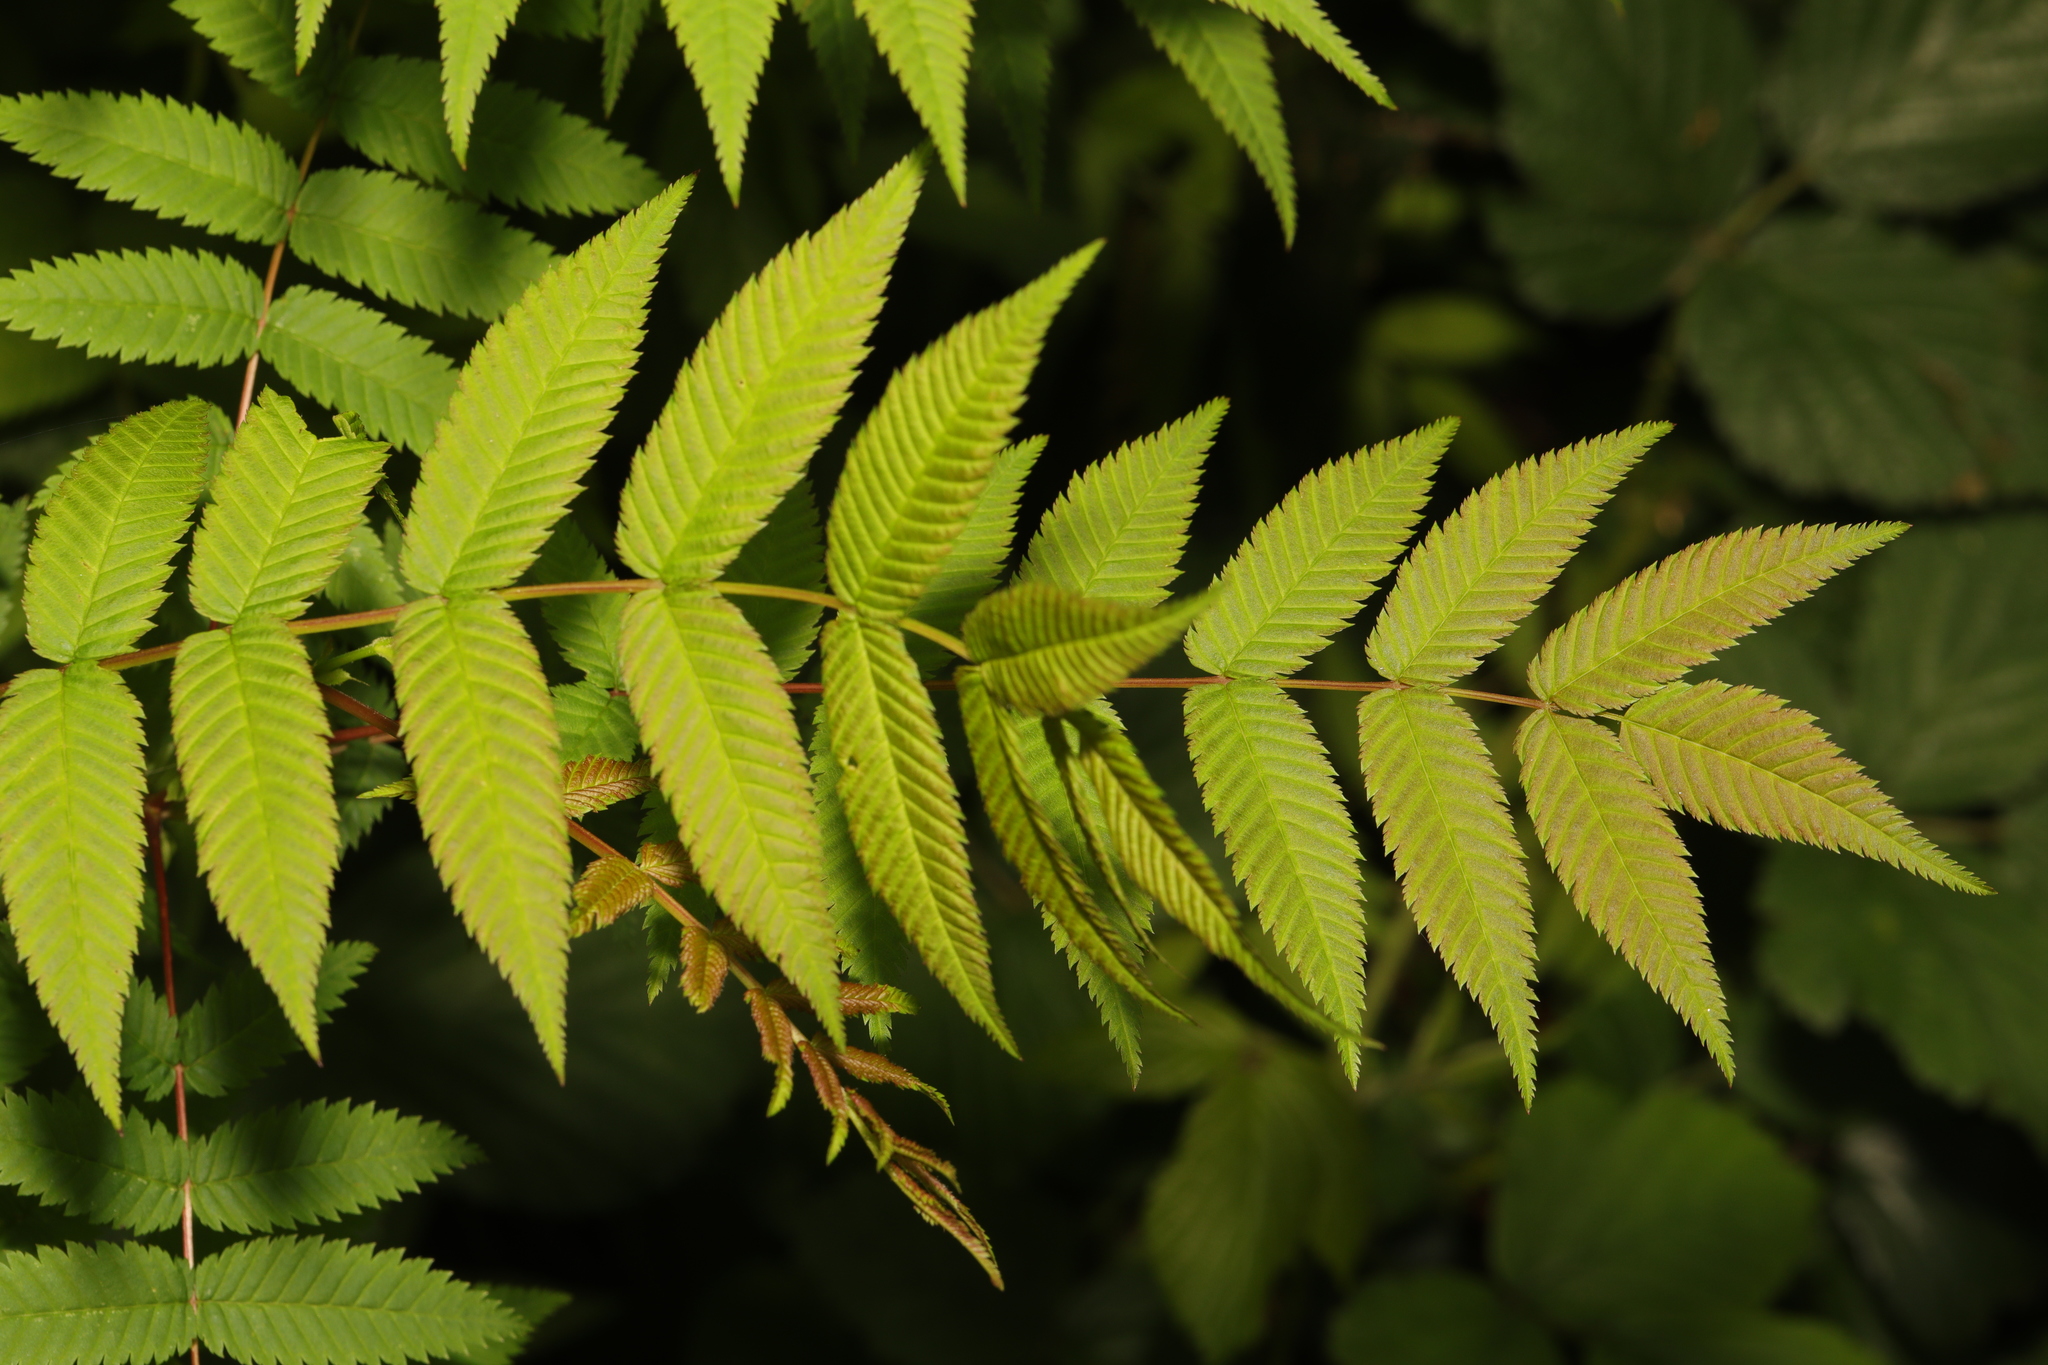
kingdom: Plantae
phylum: Tracheophyta
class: Magnoliopsida
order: Rosales
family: Rosaceae
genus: Sorbaria
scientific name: Sorbaria sorbifolia
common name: False spiraea
